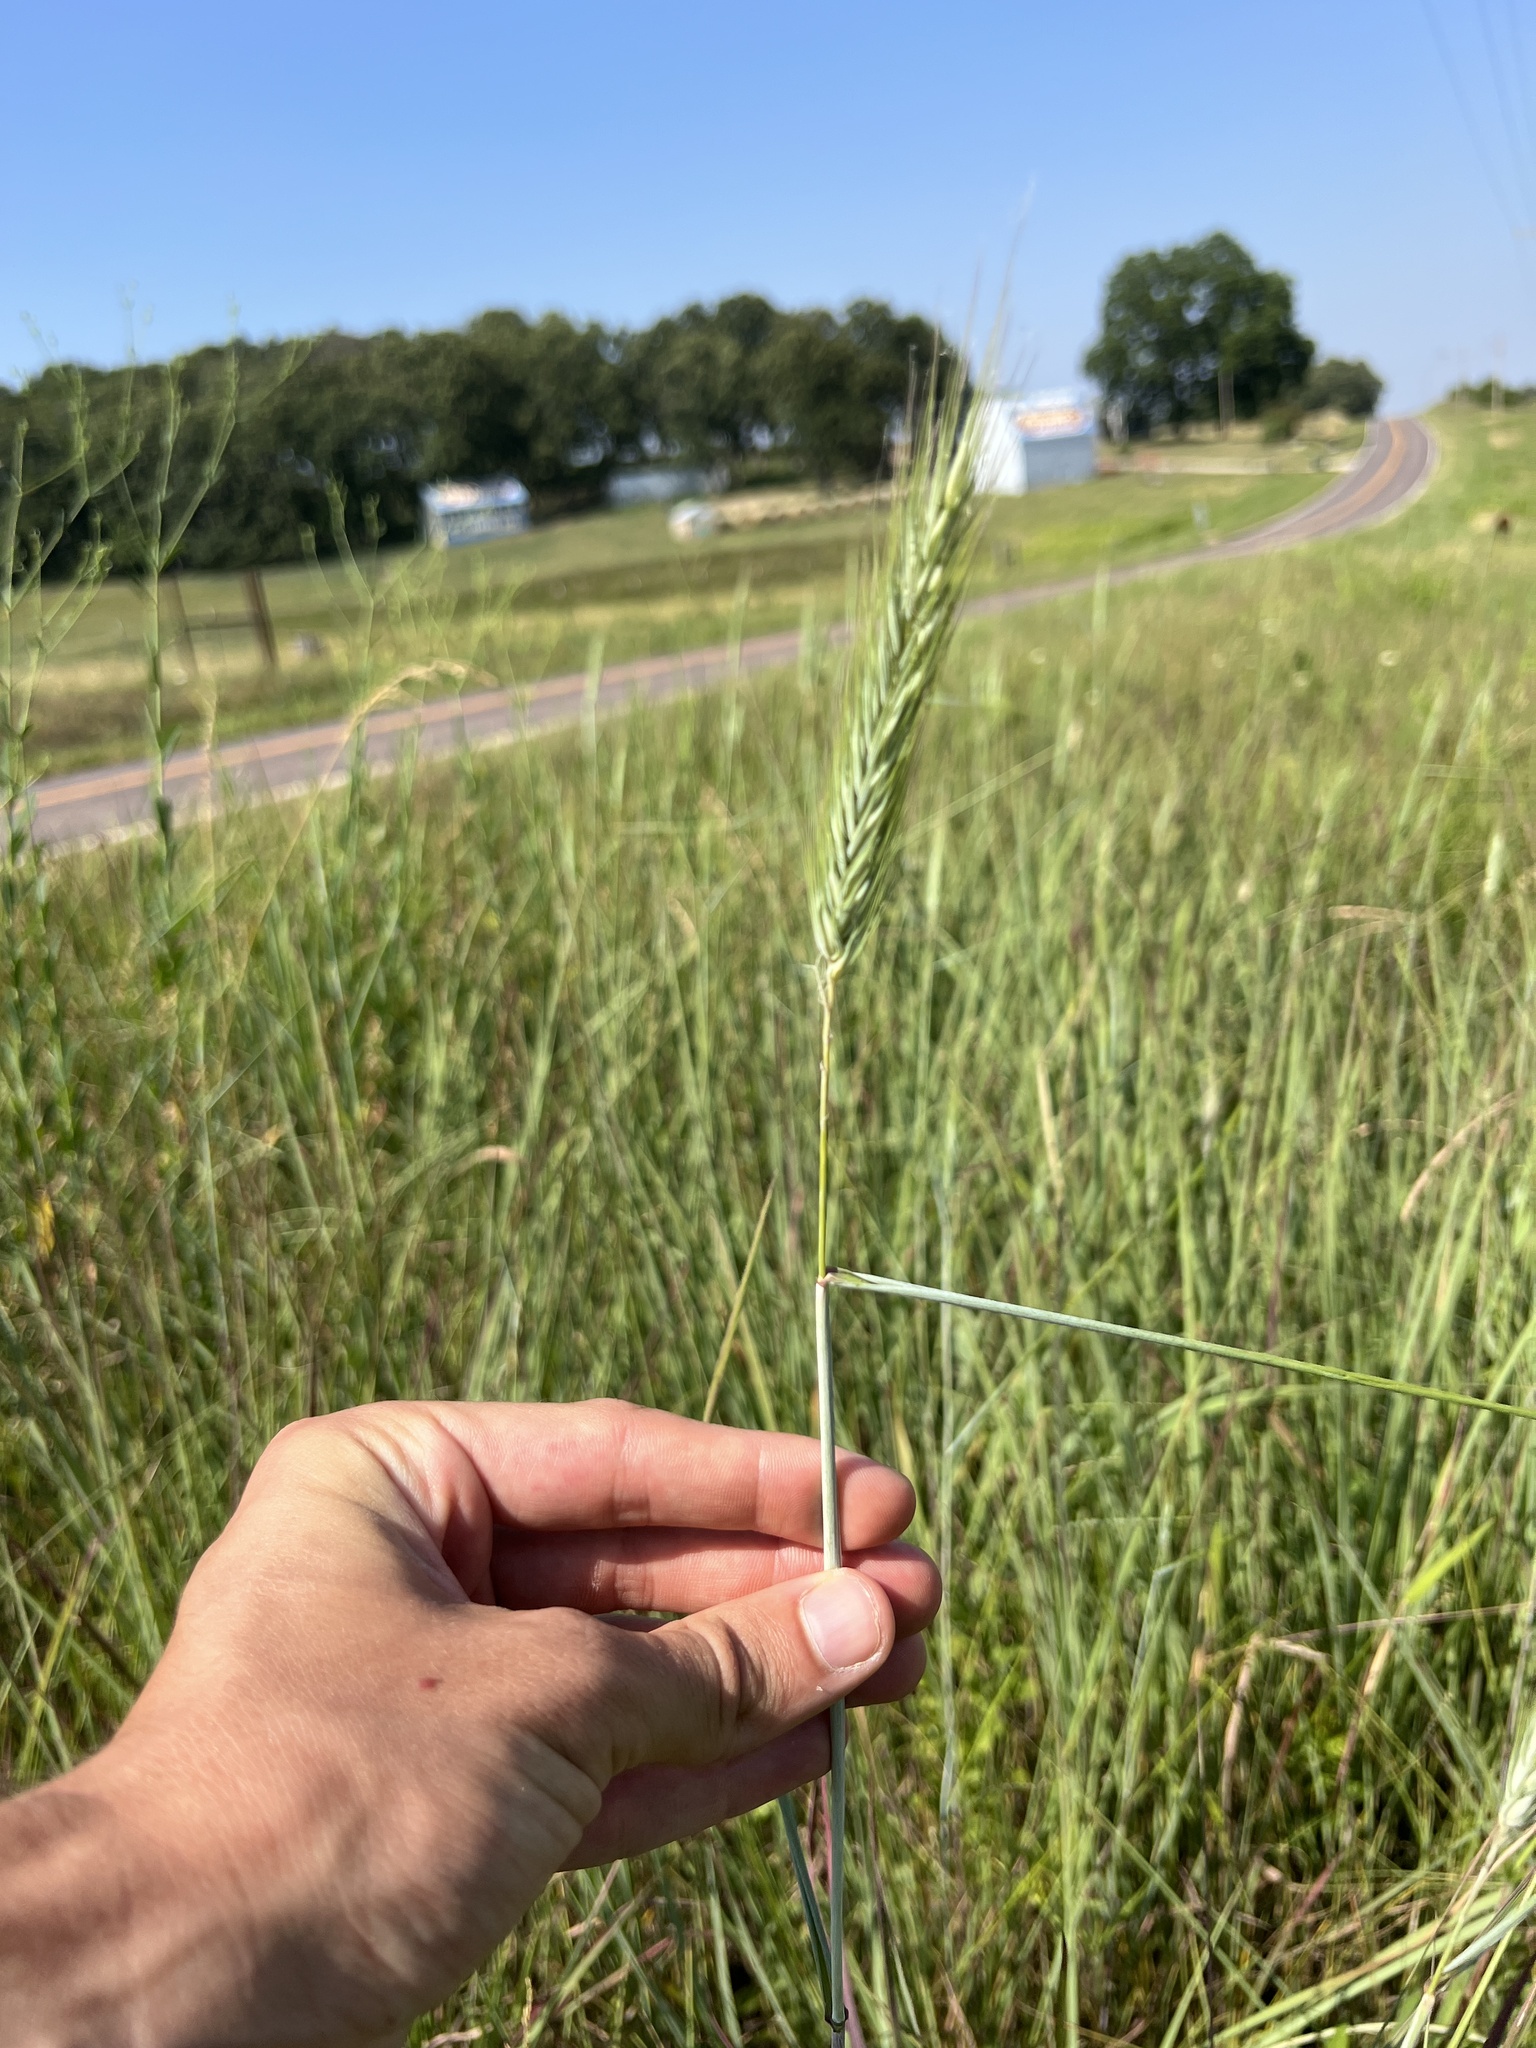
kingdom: Plantae
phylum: Tracheophyta
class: Liliopsida
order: Poales
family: Poaceae
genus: Elymus
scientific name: Elymus virginicus
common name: Common eastern wildrye
